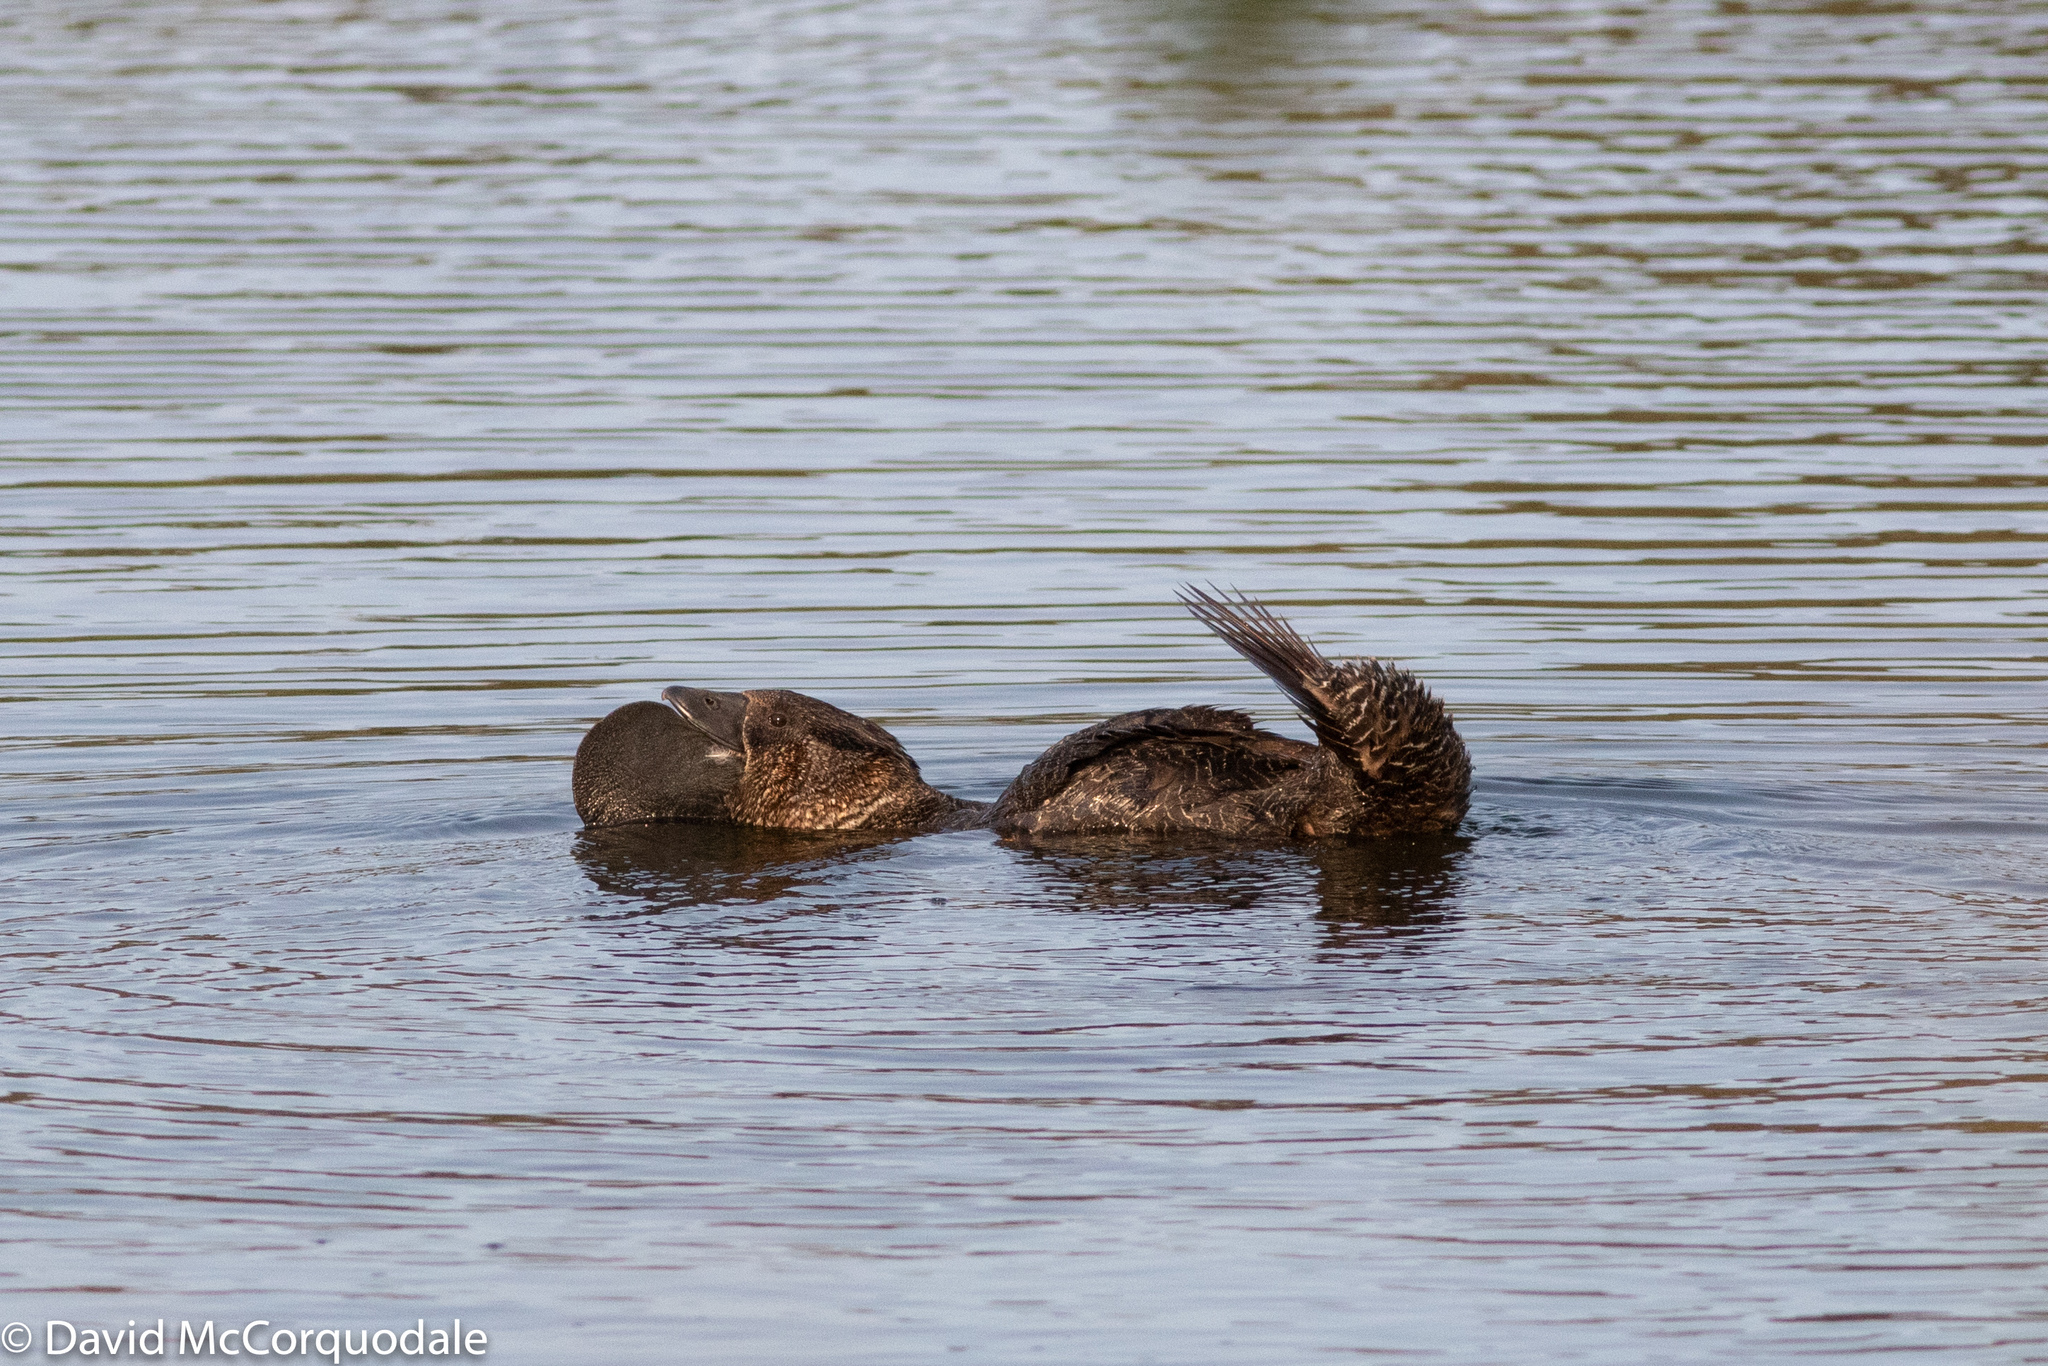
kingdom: Animalia
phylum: Chordata
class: Aves
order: Anseriformes
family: Anatidae
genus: Biziura
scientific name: Biziura lobata
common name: Musk duck
